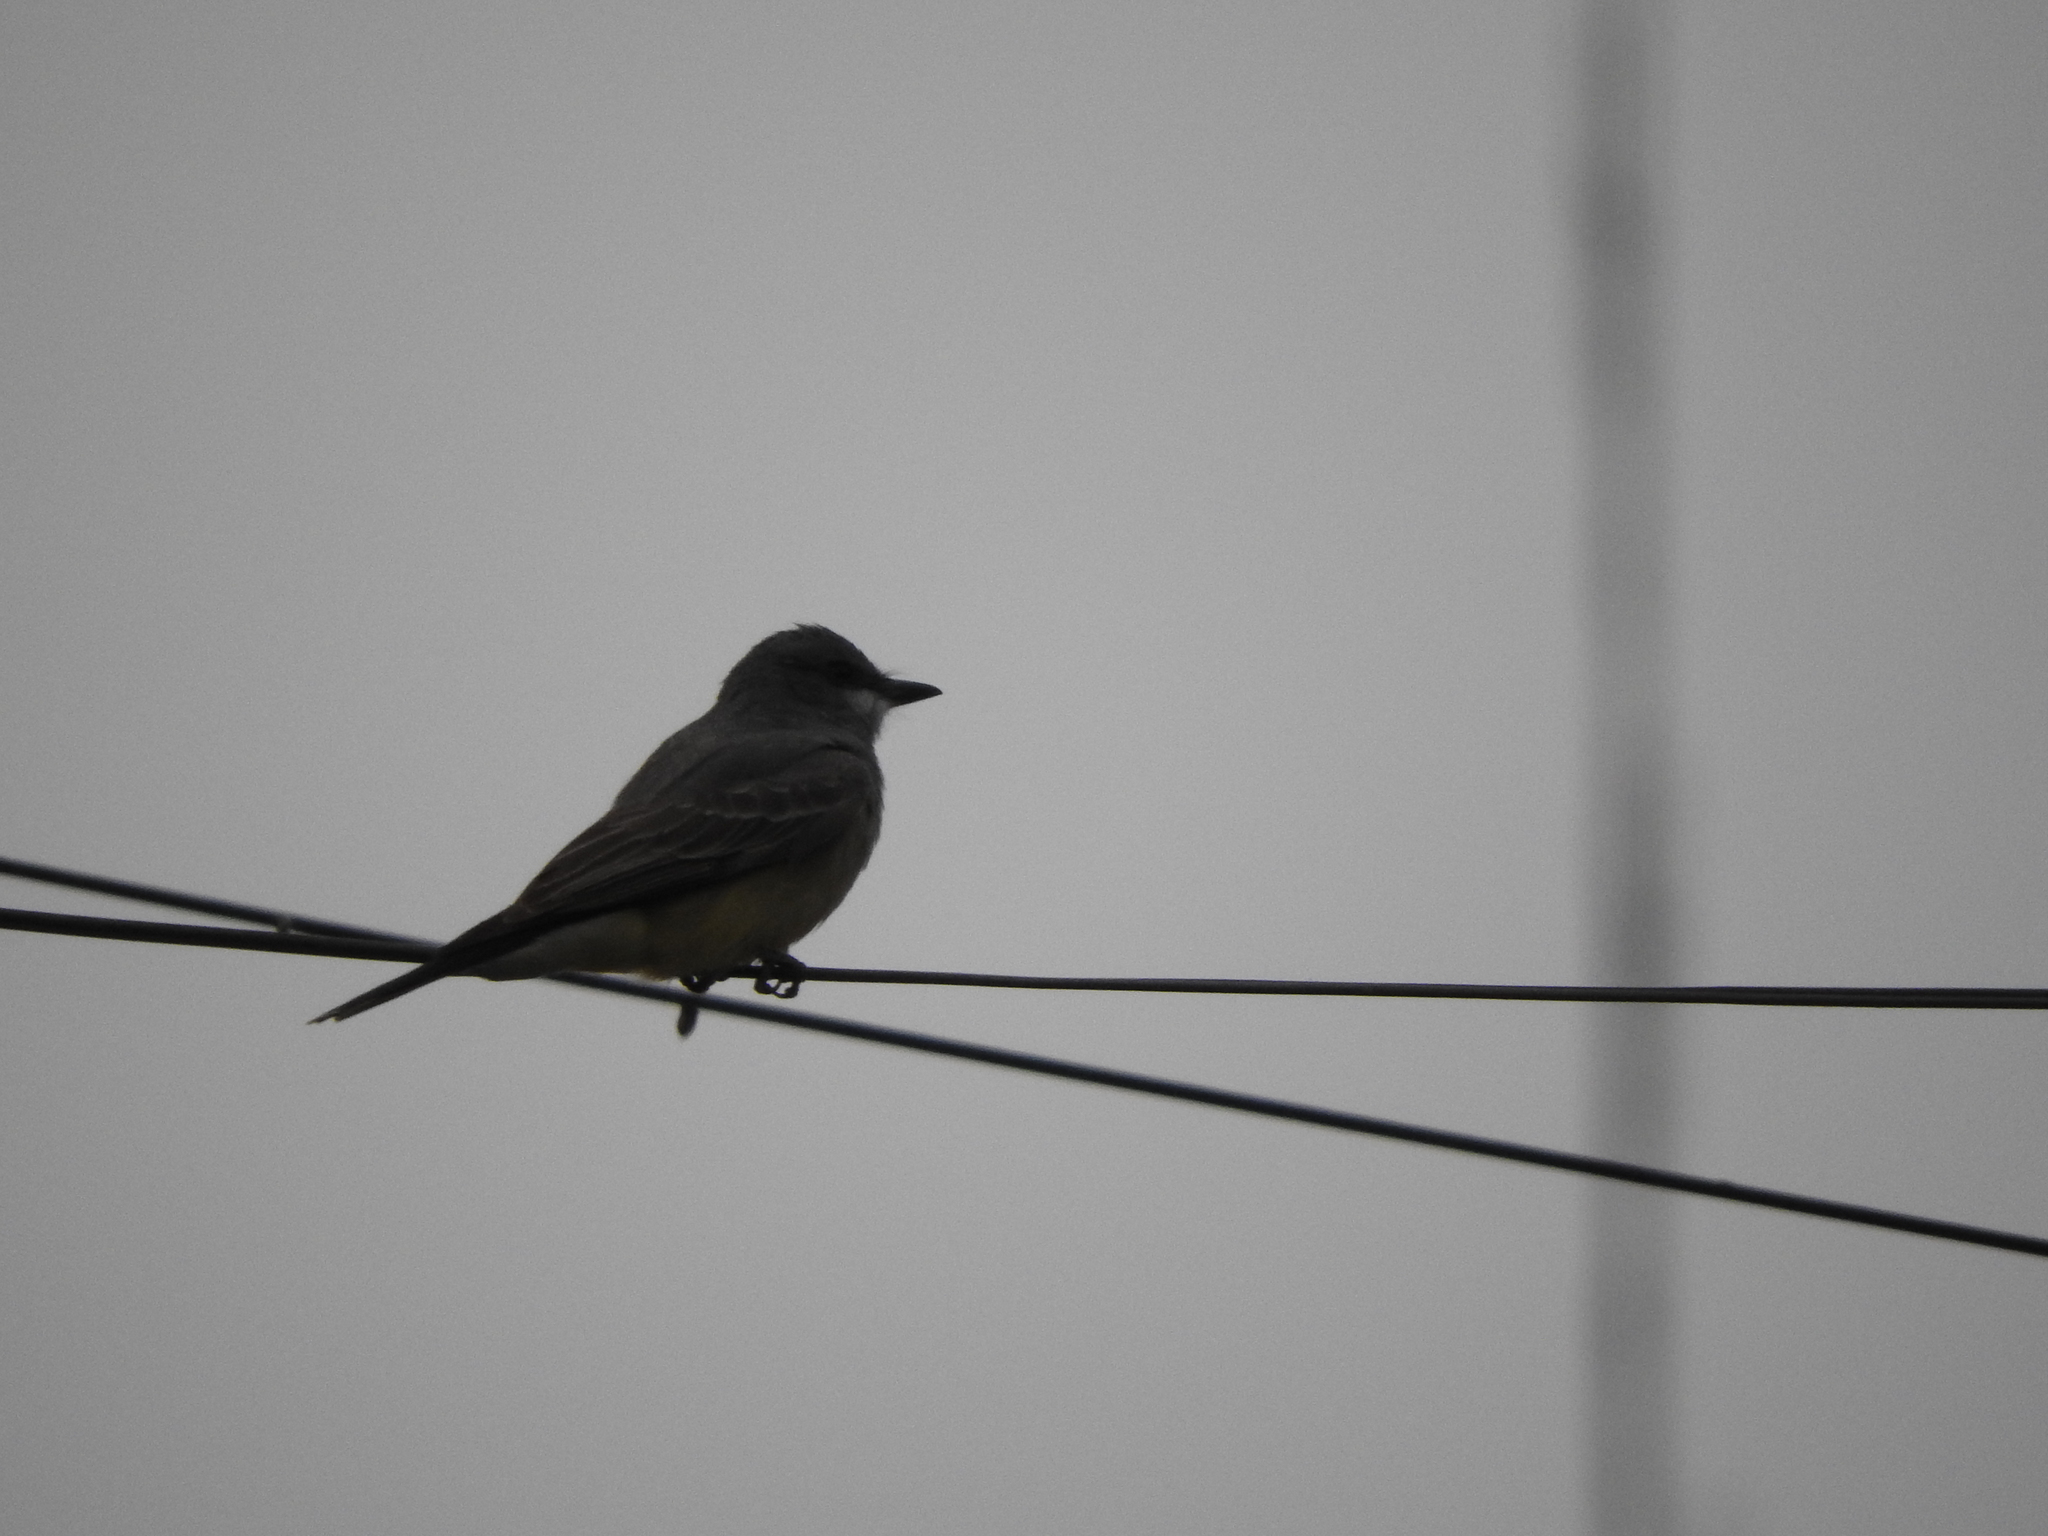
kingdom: Animalia
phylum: Chordata
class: Aves
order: Passeriformes
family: Tyrannidae
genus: Tyrannus
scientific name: Tyrannus vociferans
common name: Cassin's kingbird
